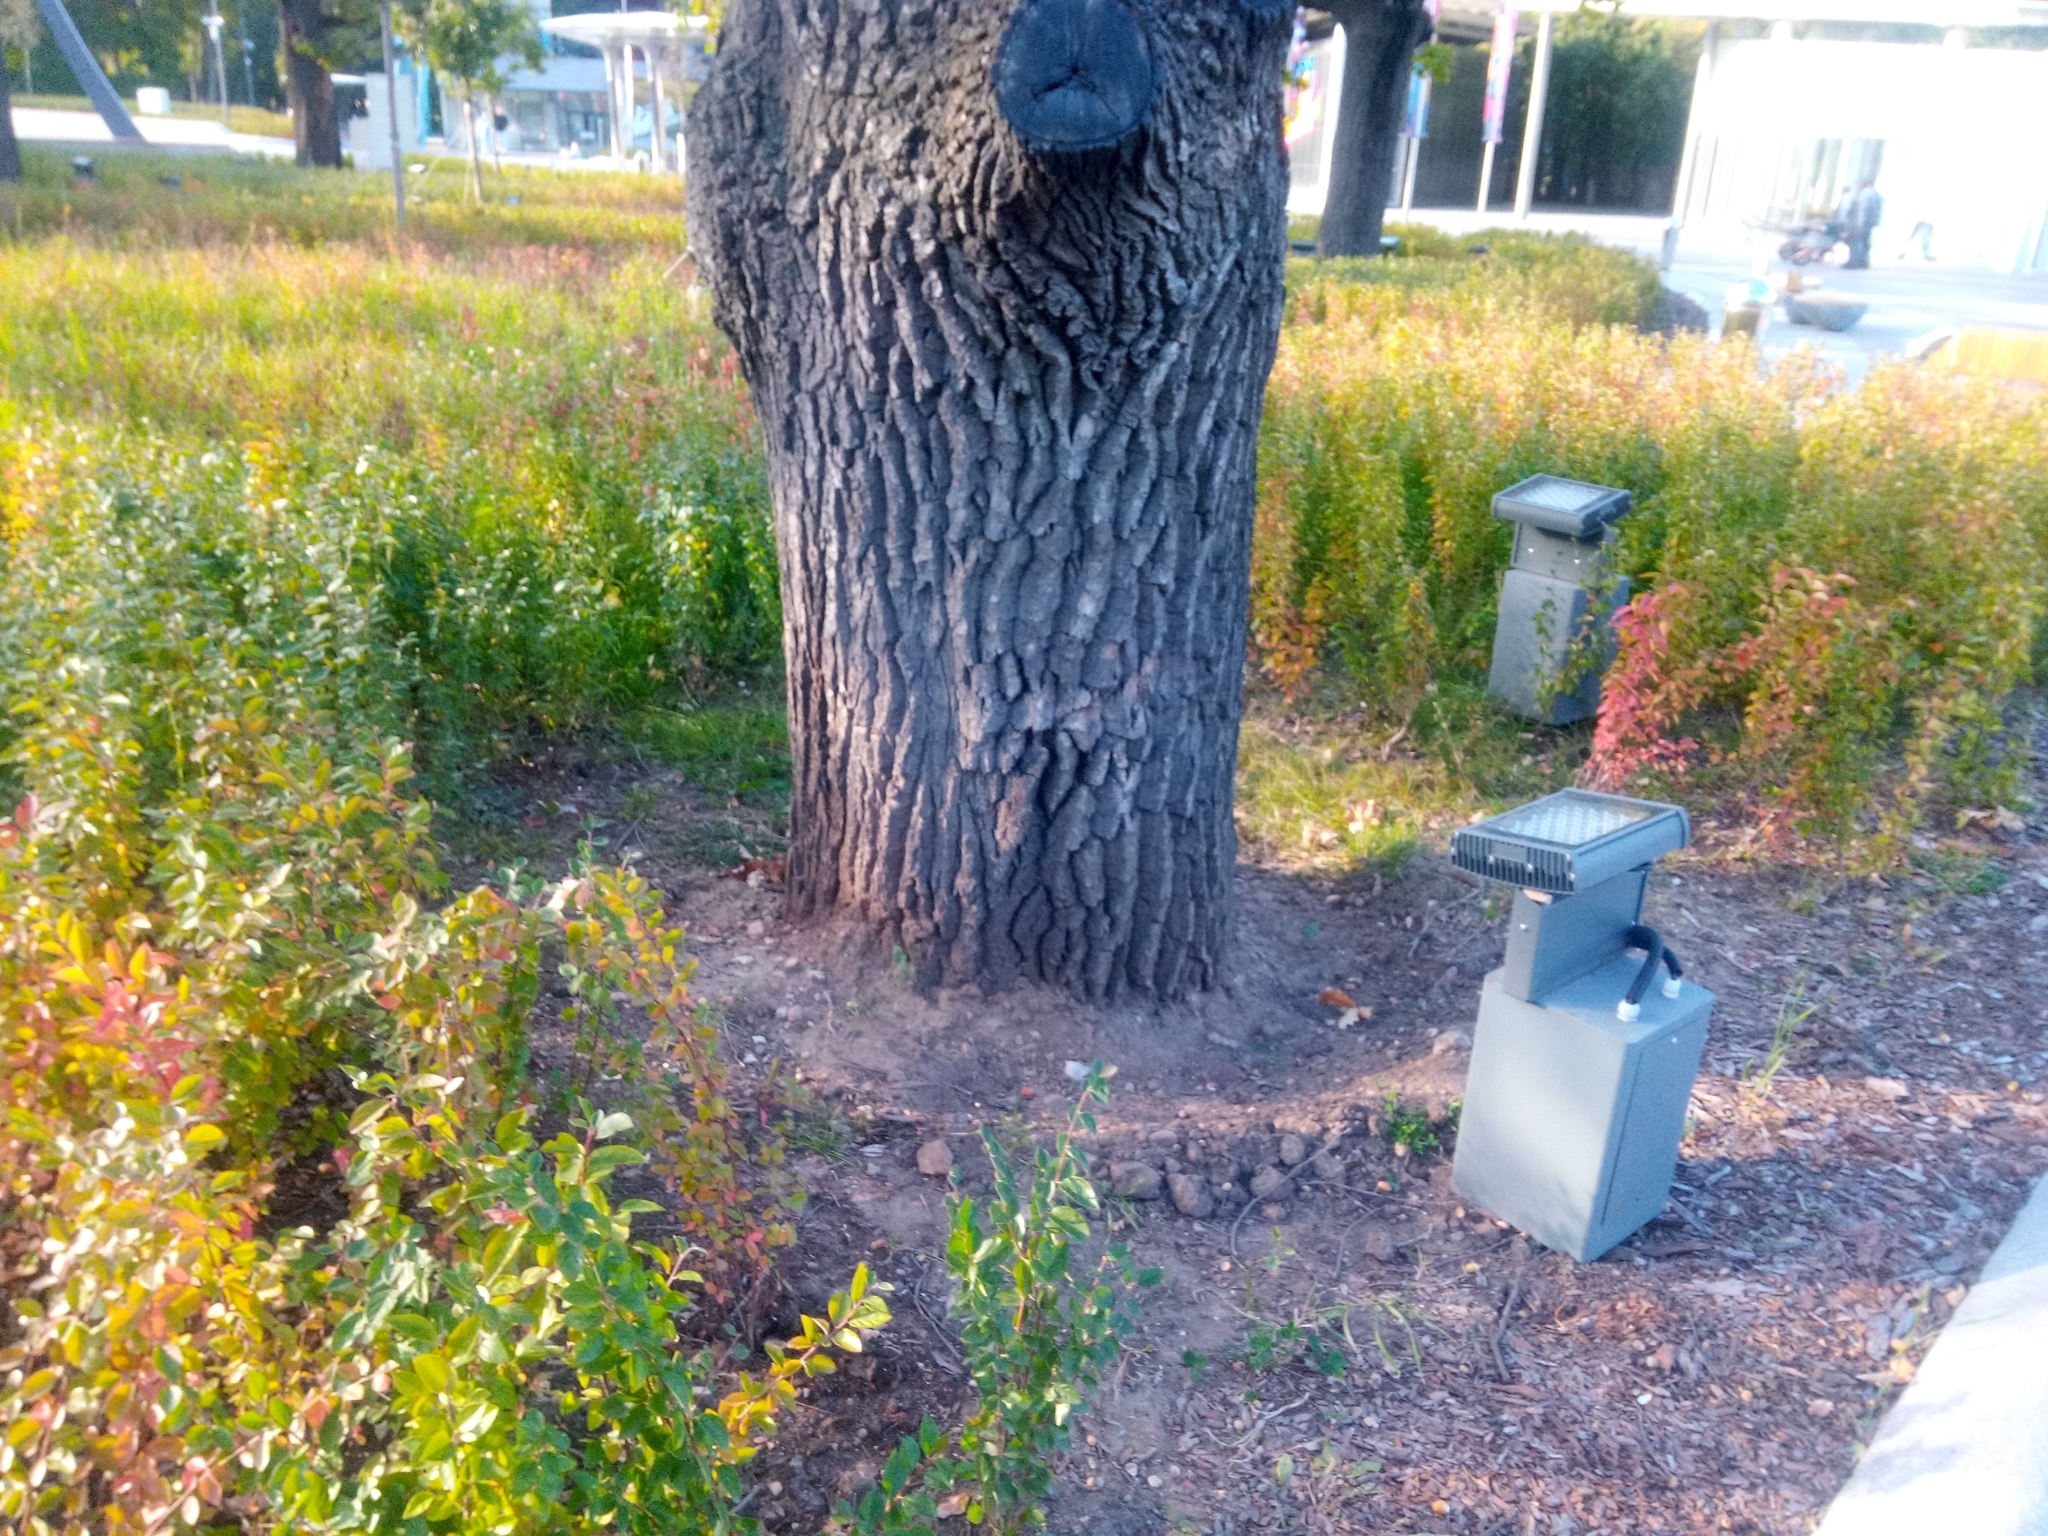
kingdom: Plantae
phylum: Tracheophyta
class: Magnoliopsida
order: Fagales
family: Fagaceae
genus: Quercus
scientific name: Quercus robur
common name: Pedunculate oak
